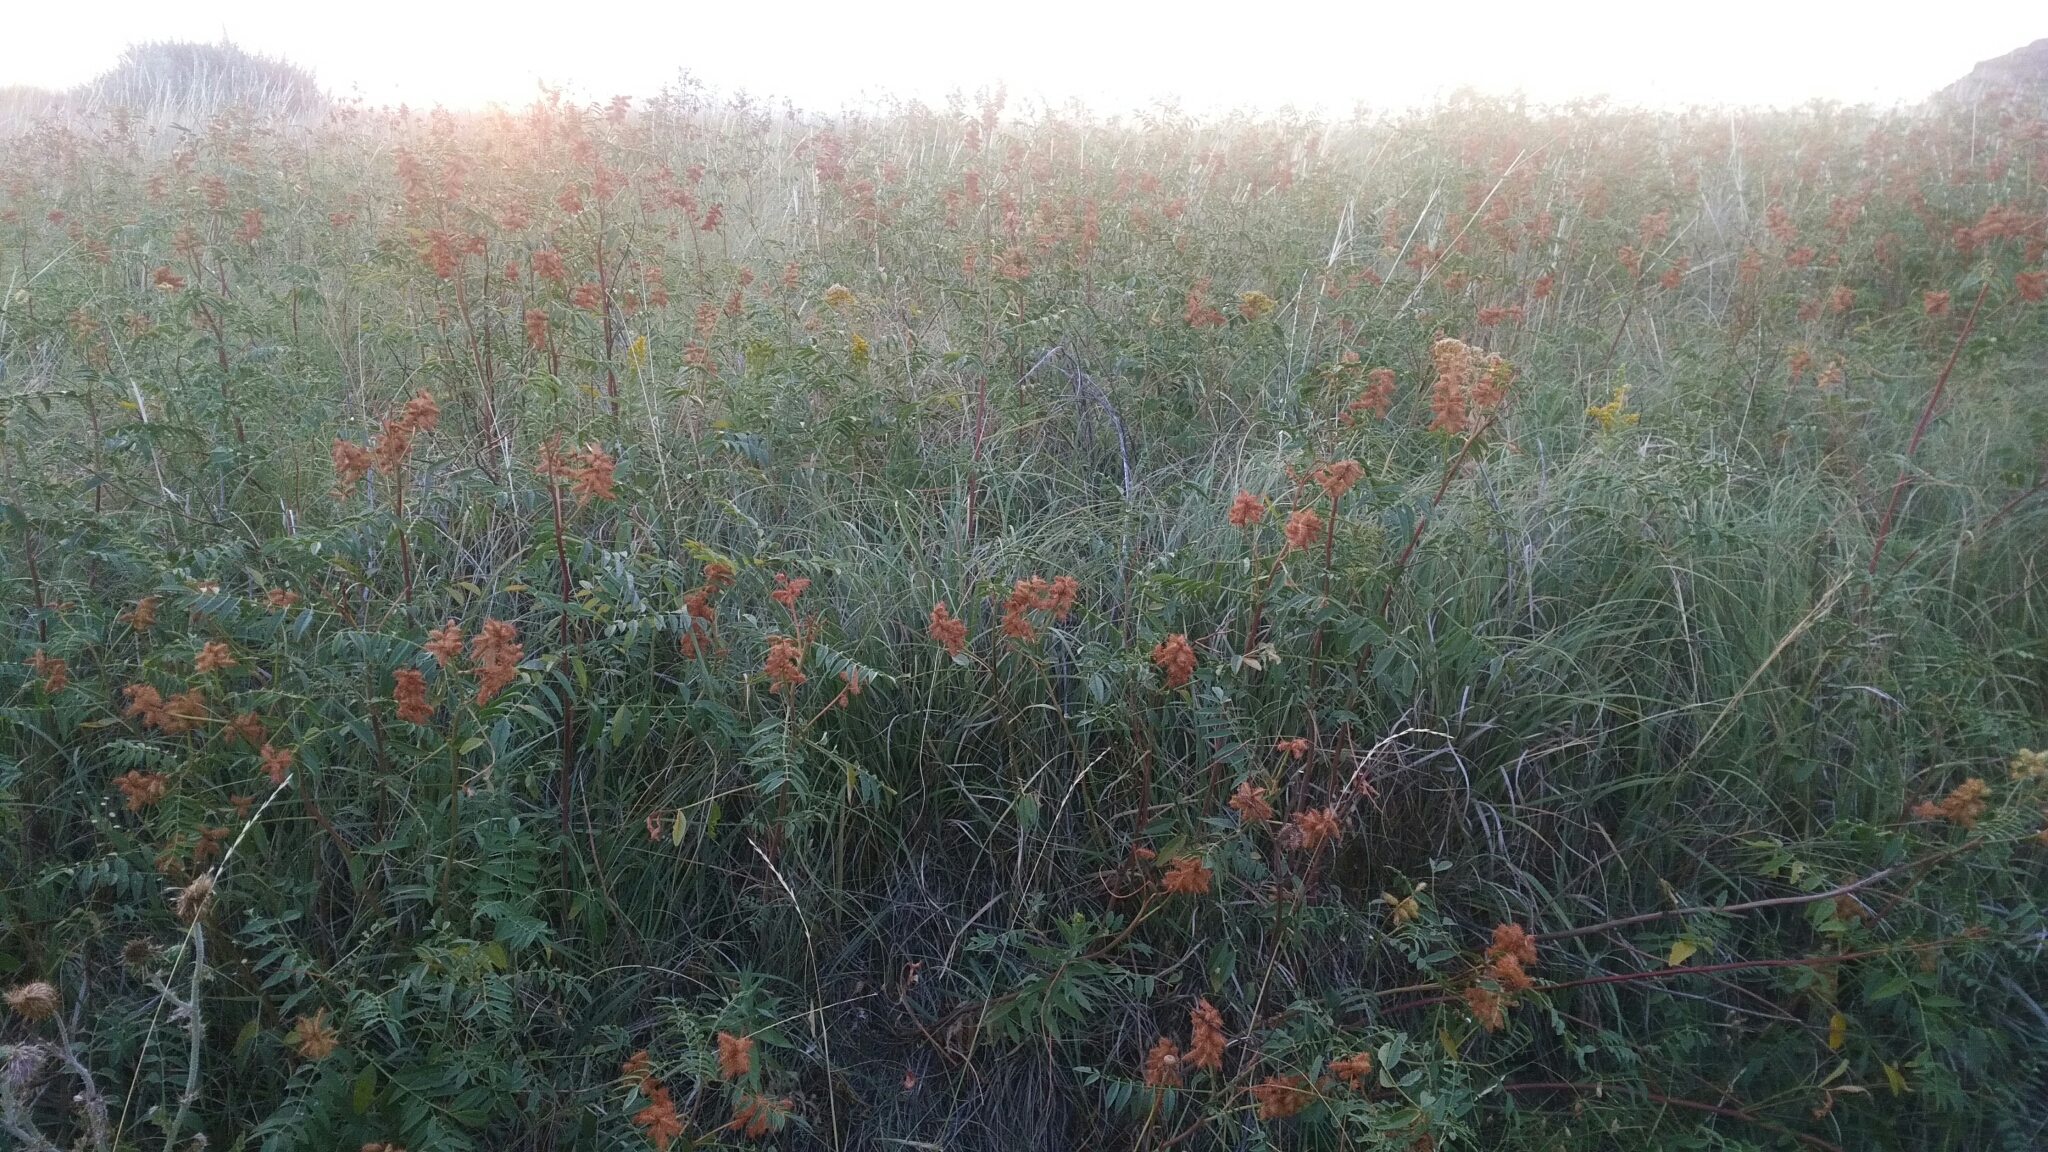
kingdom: Plantae
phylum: Tracheophyta
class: Magnoliopsida
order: Fabales
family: Fabaceae
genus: Glycyrrhiza
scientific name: Glycyrrhiza lepidota
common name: American liquorice
